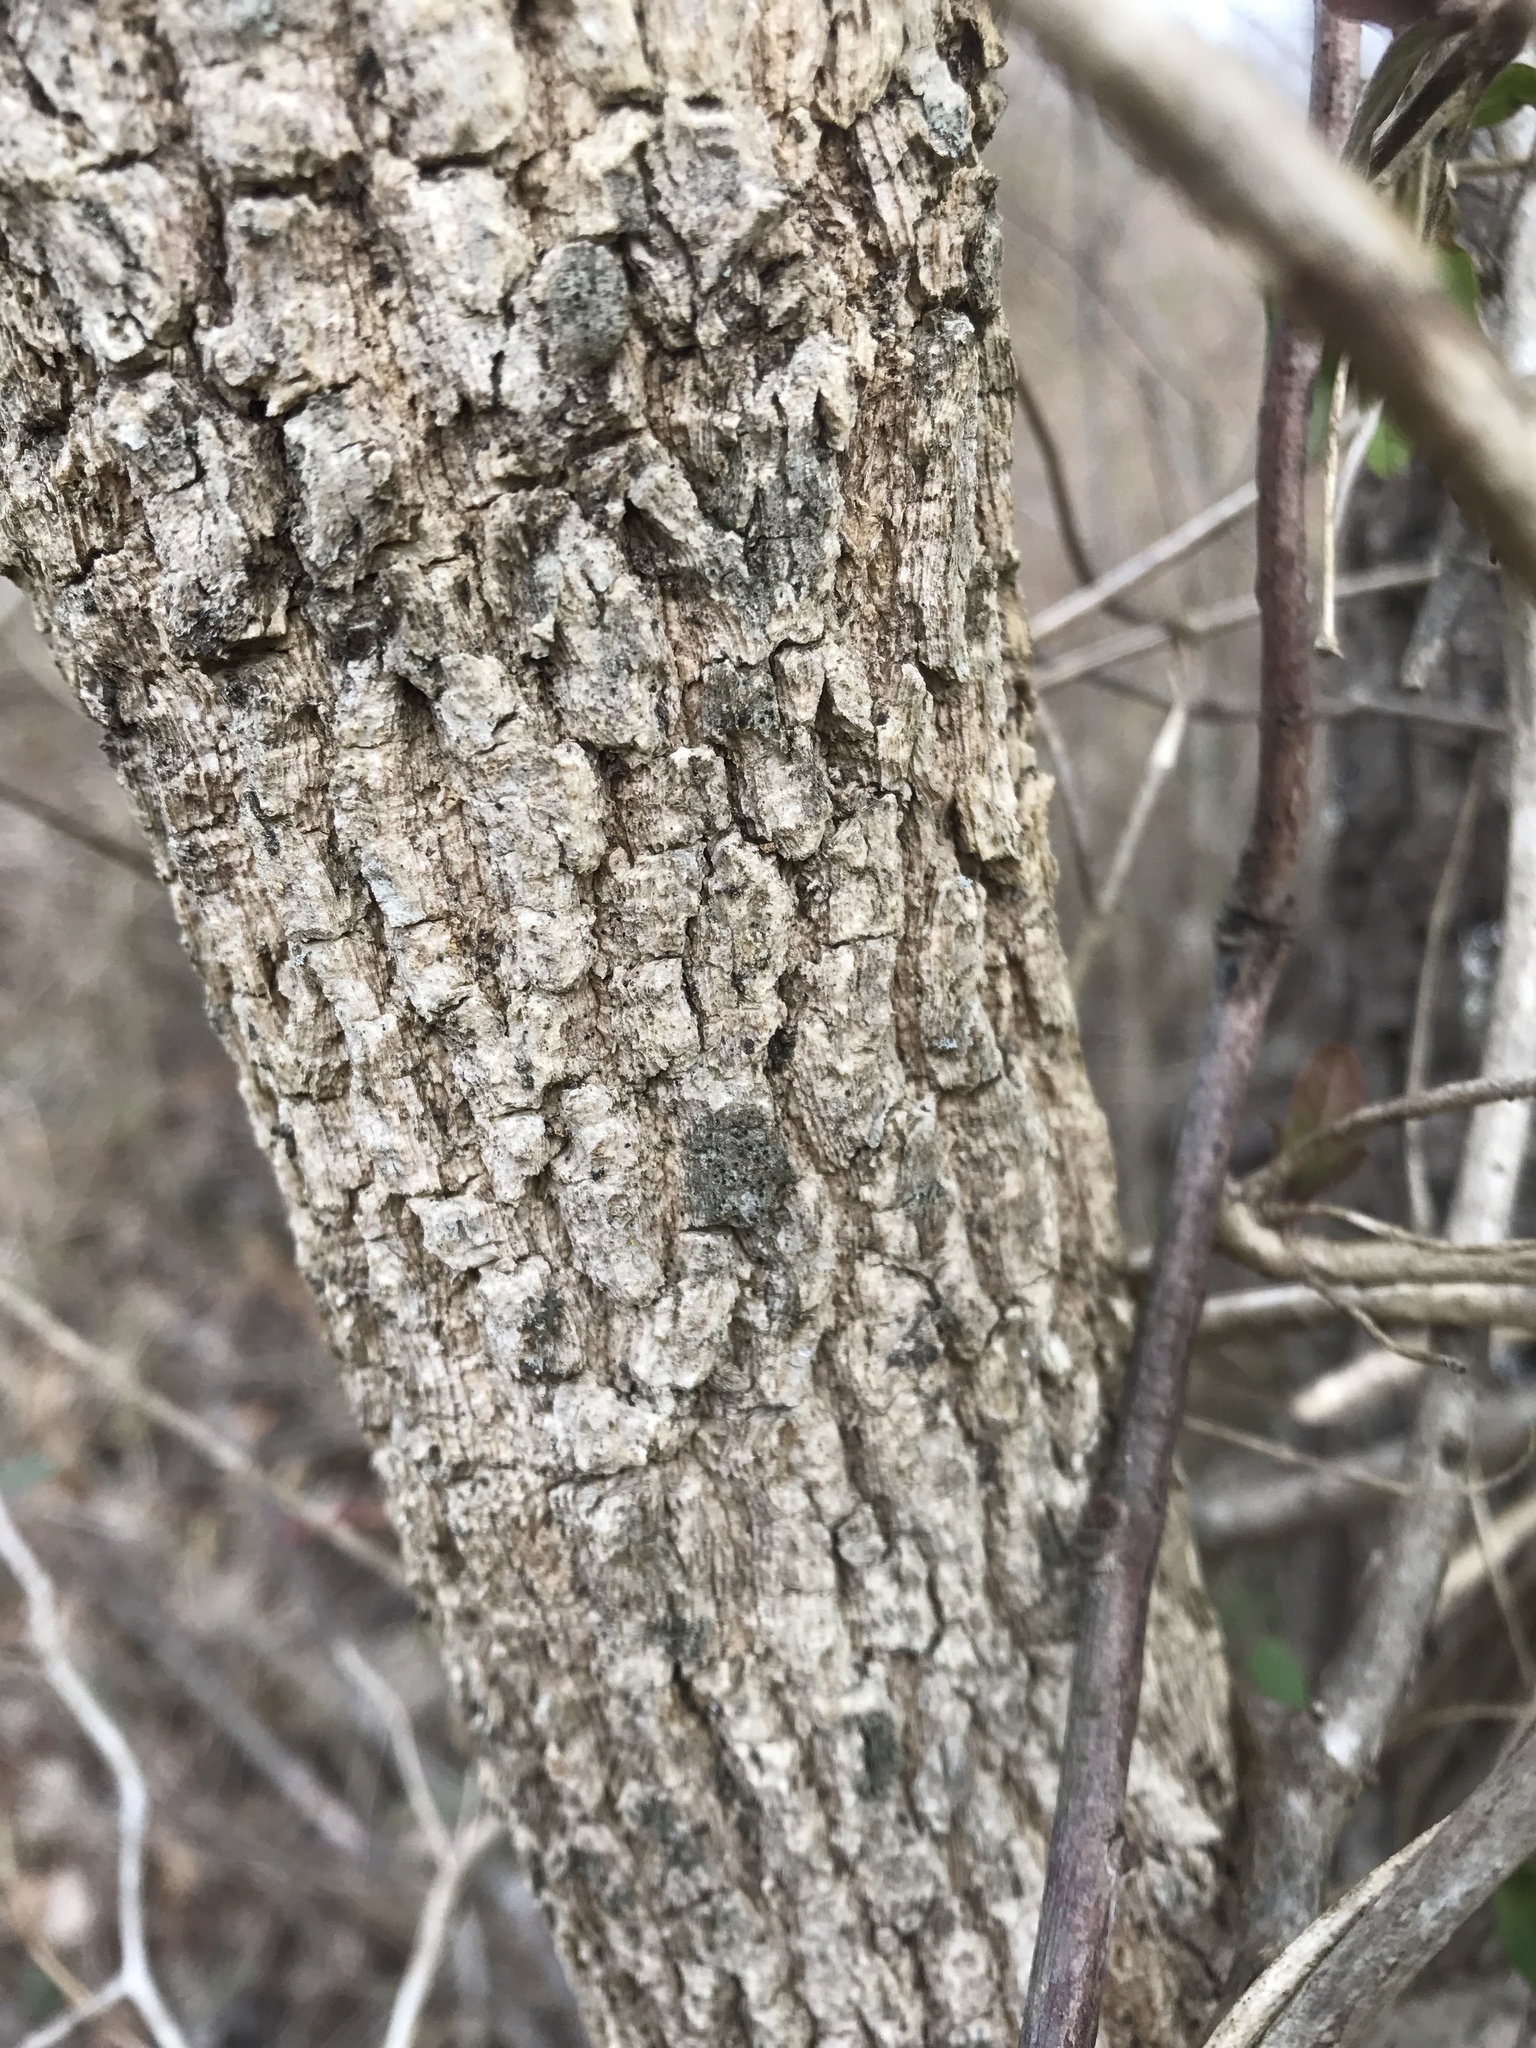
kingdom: Plantae
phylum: Tracheophyta
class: Magnoliopsida
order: Lamiales
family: Oleaceae
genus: Fraxinus
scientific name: Fraxinus pennsylvanica
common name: Green ash
